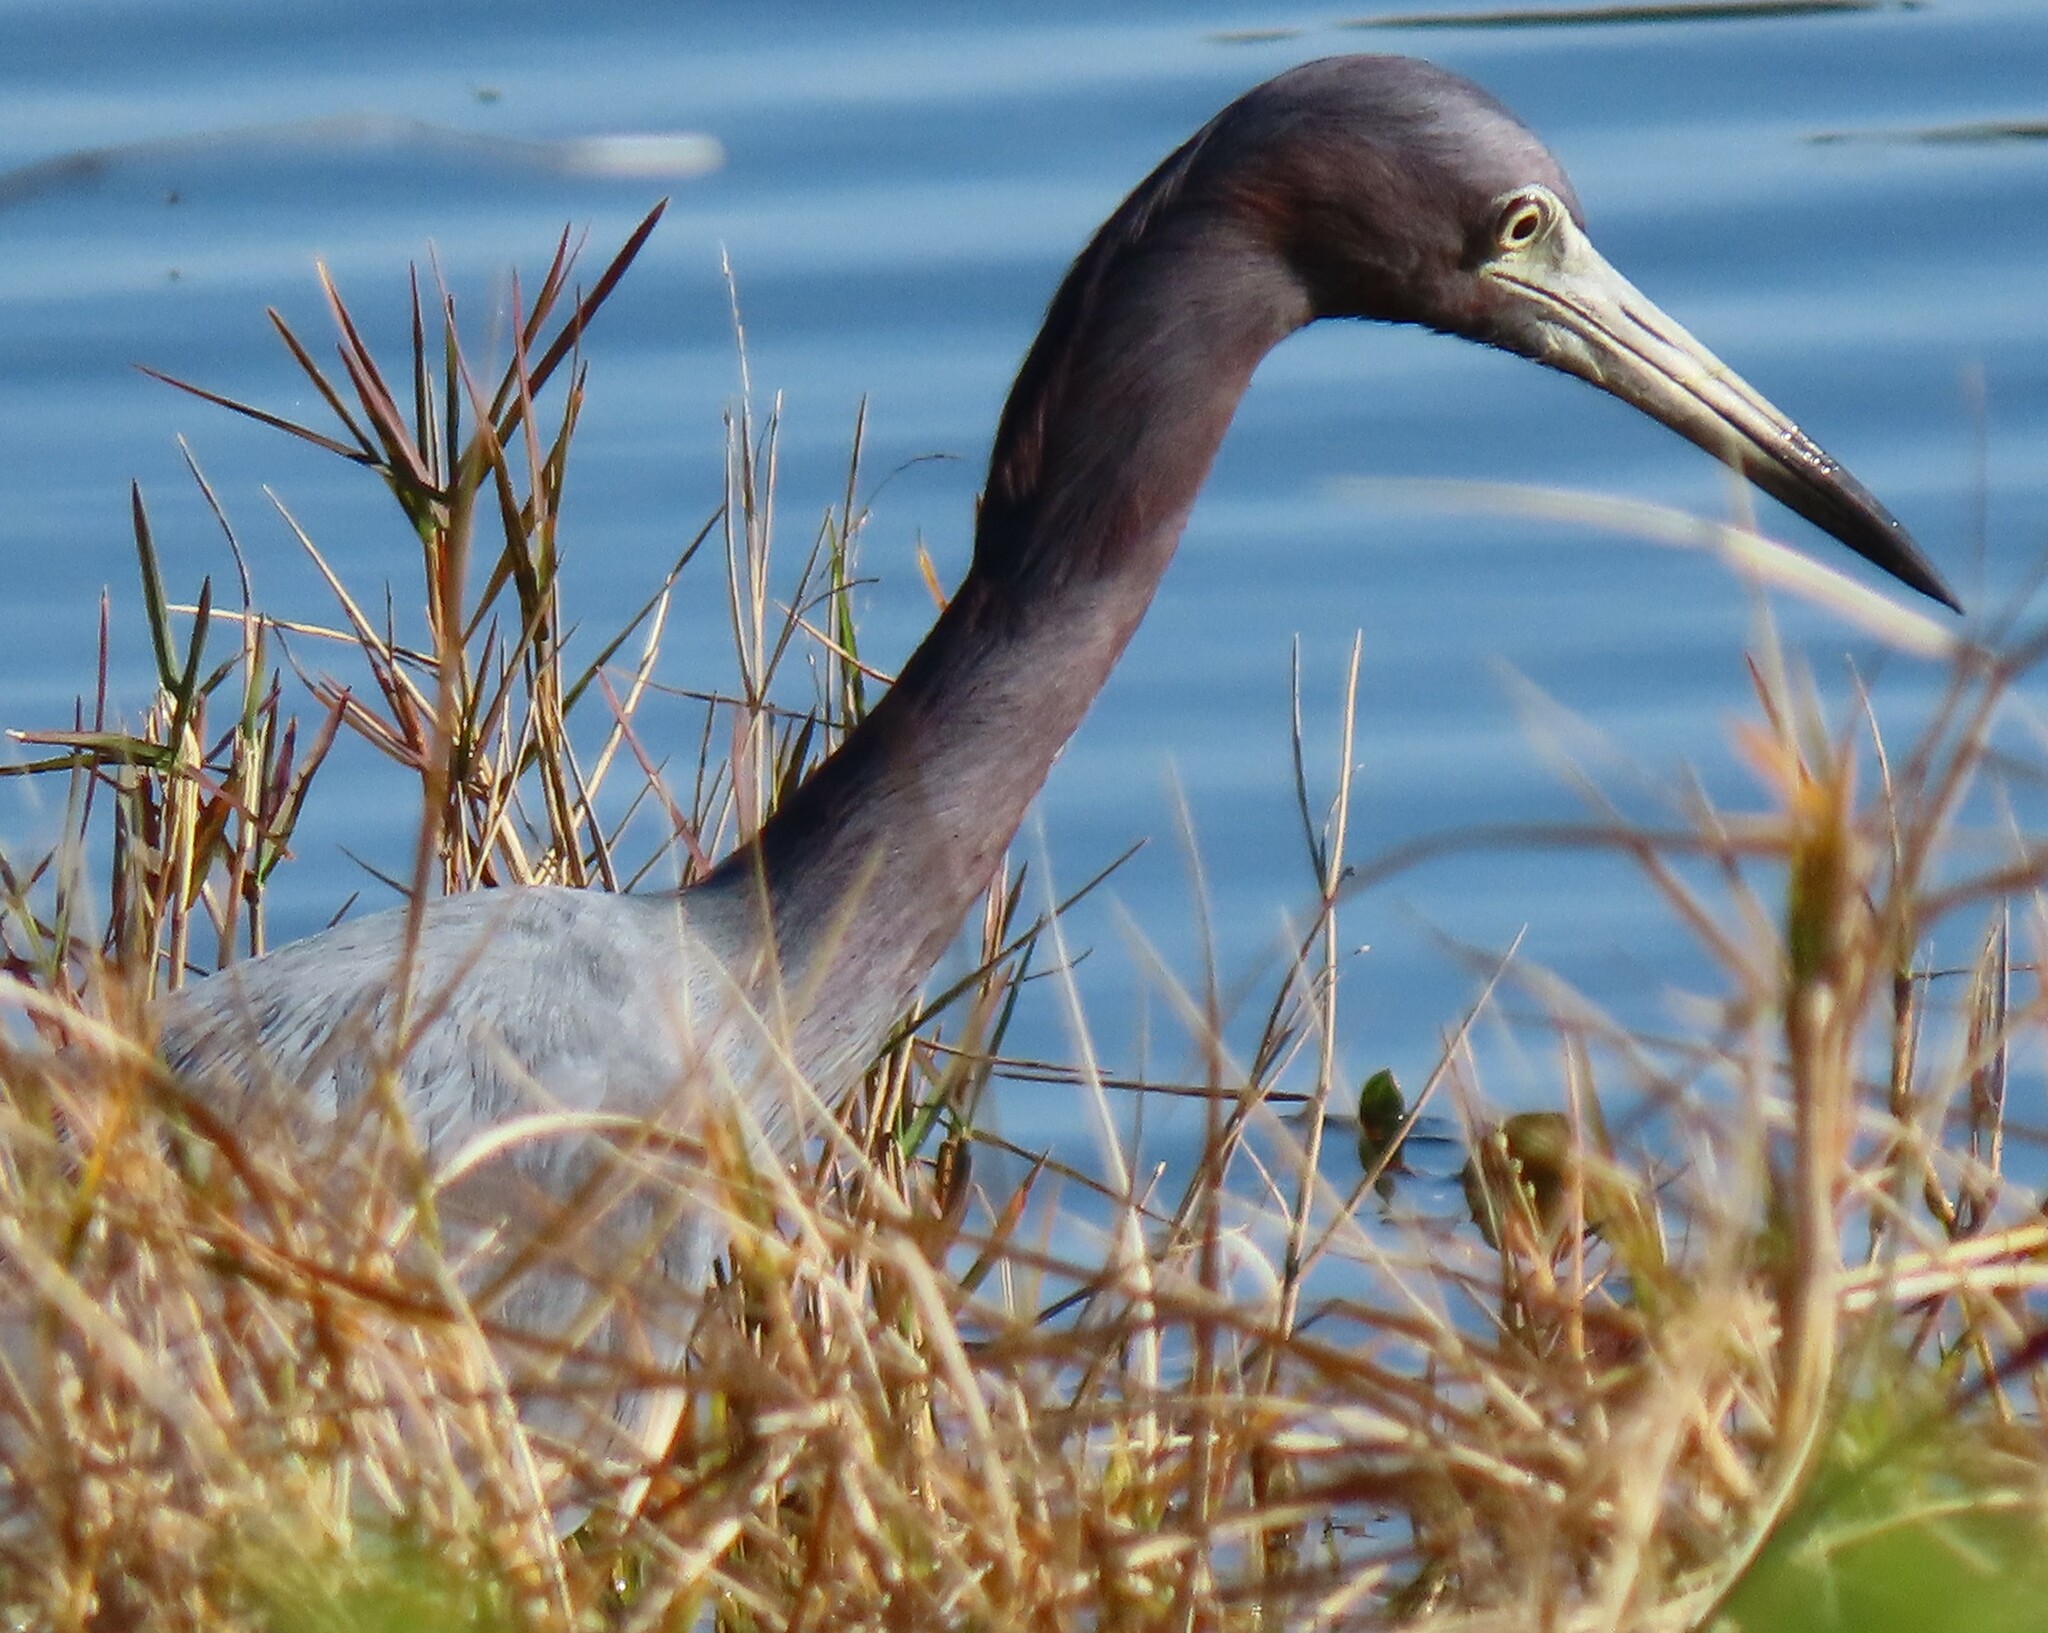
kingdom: Animalia
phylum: Chordata
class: Aves
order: Pelecaniformes
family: Ardeidae
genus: Egretta
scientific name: Egretta caerulea
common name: Little blue heron
